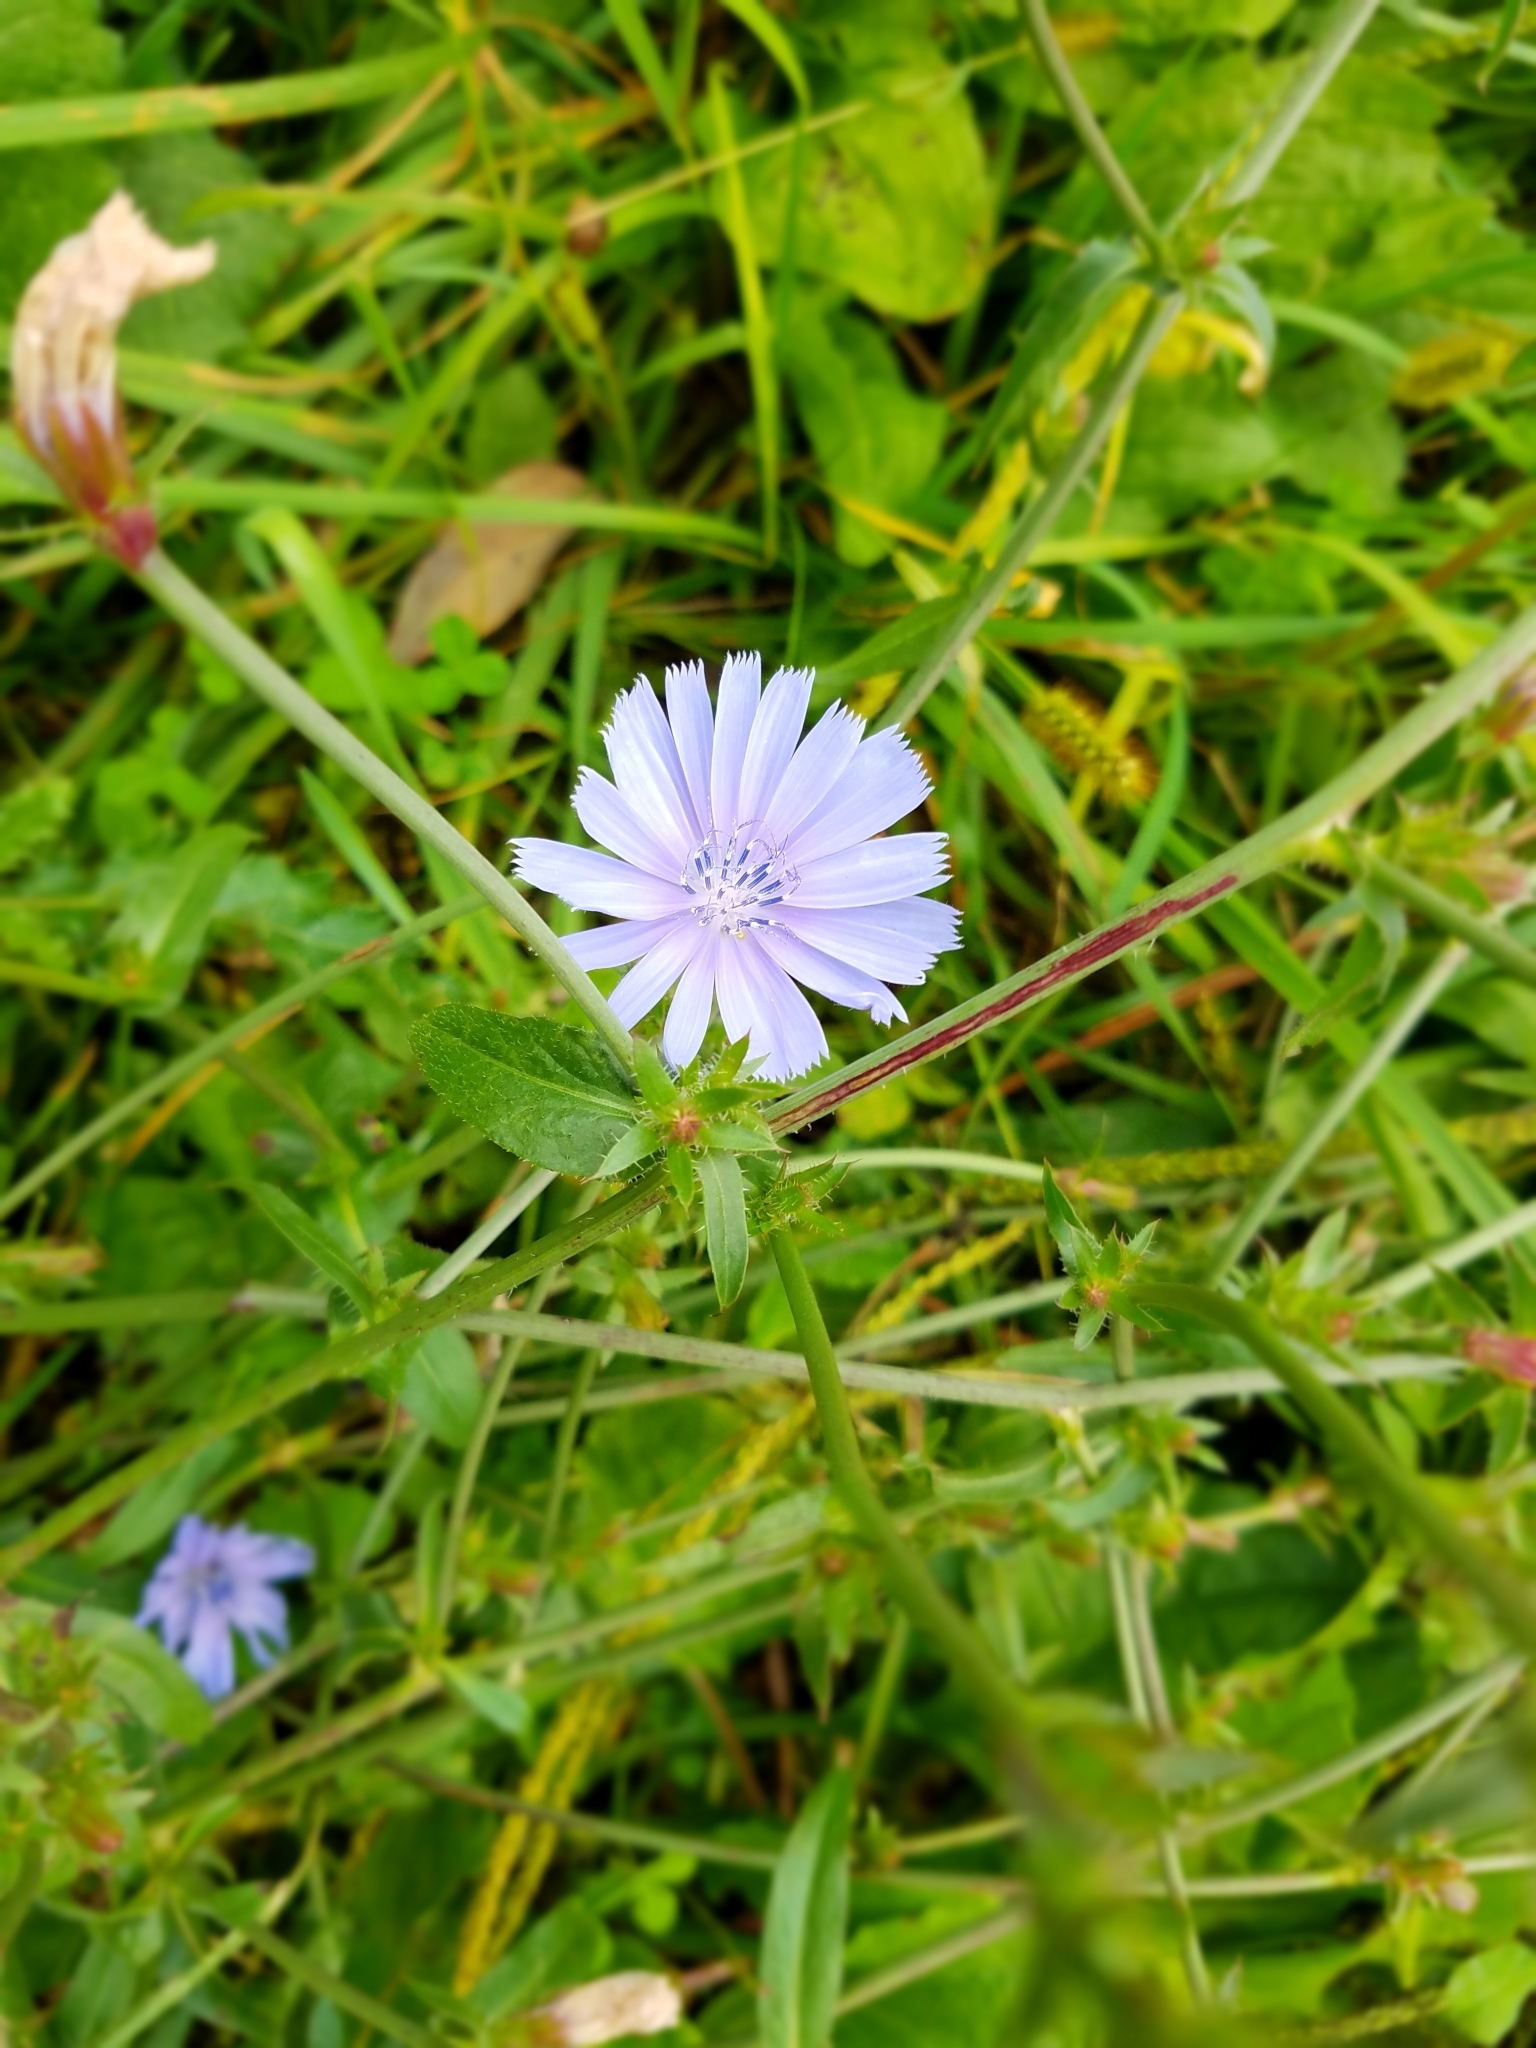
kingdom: Plantae
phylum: Tracheophyta
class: Magnoliopsida
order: Asterales
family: Asteraceae
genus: Cichorium
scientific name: Cichorium intybus
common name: Chicory
